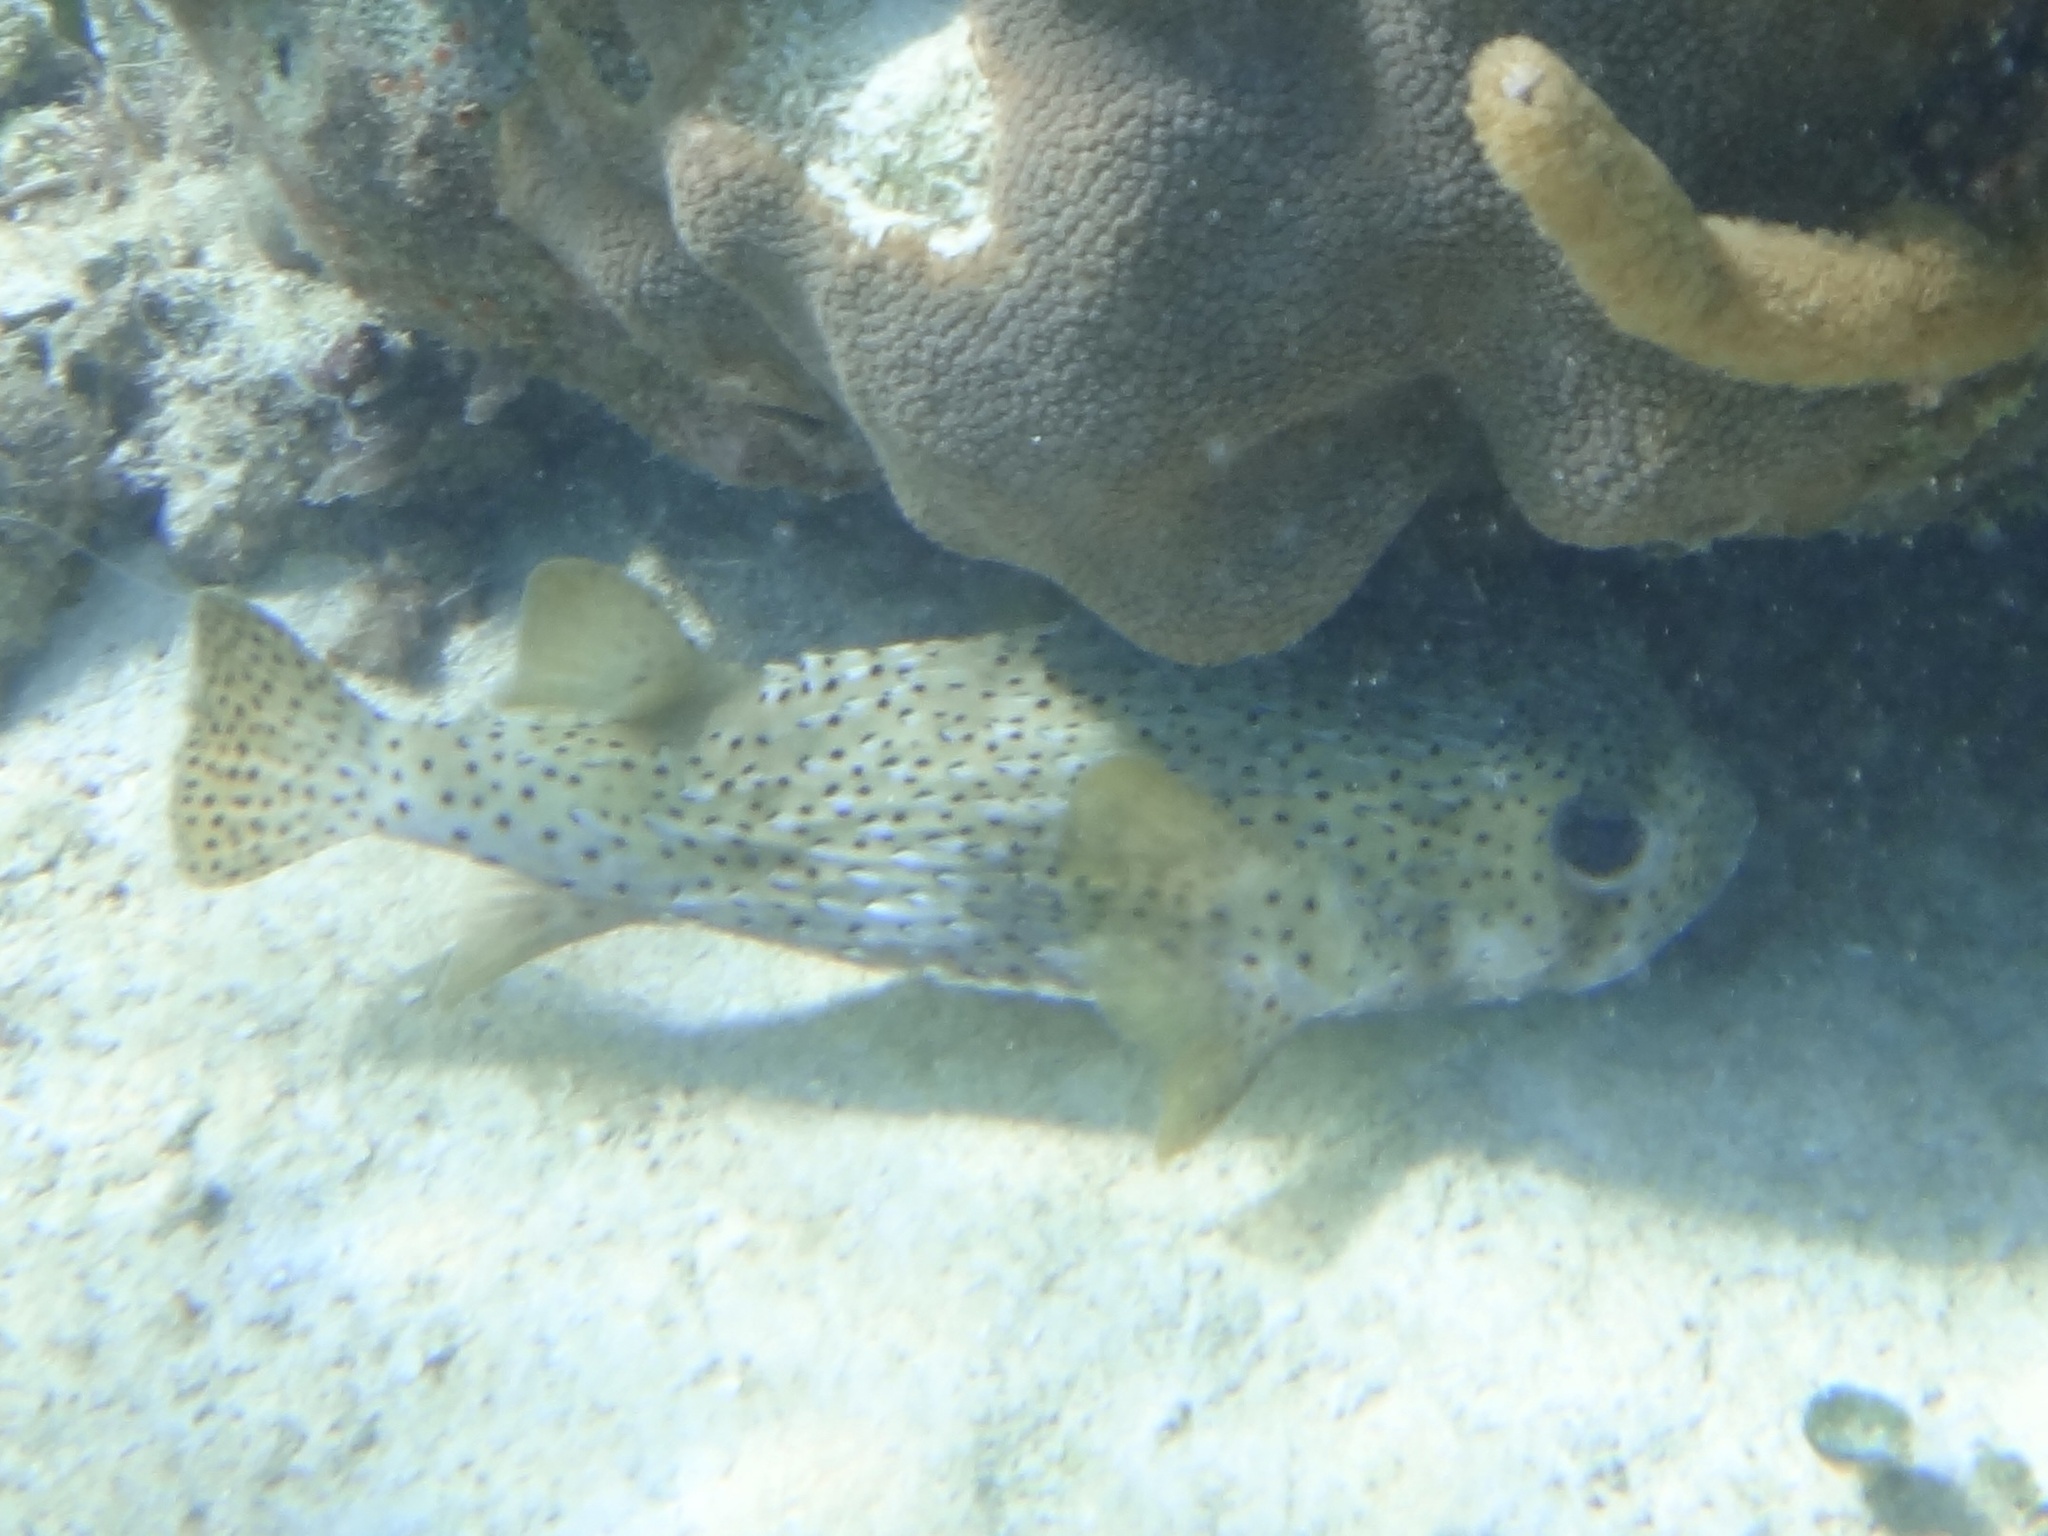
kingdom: Animalia
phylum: Chordata
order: Tetraodontiformes
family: Diodontidae
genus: Diodon
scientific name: Diodon hystrix
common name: Giant porcupinefish
